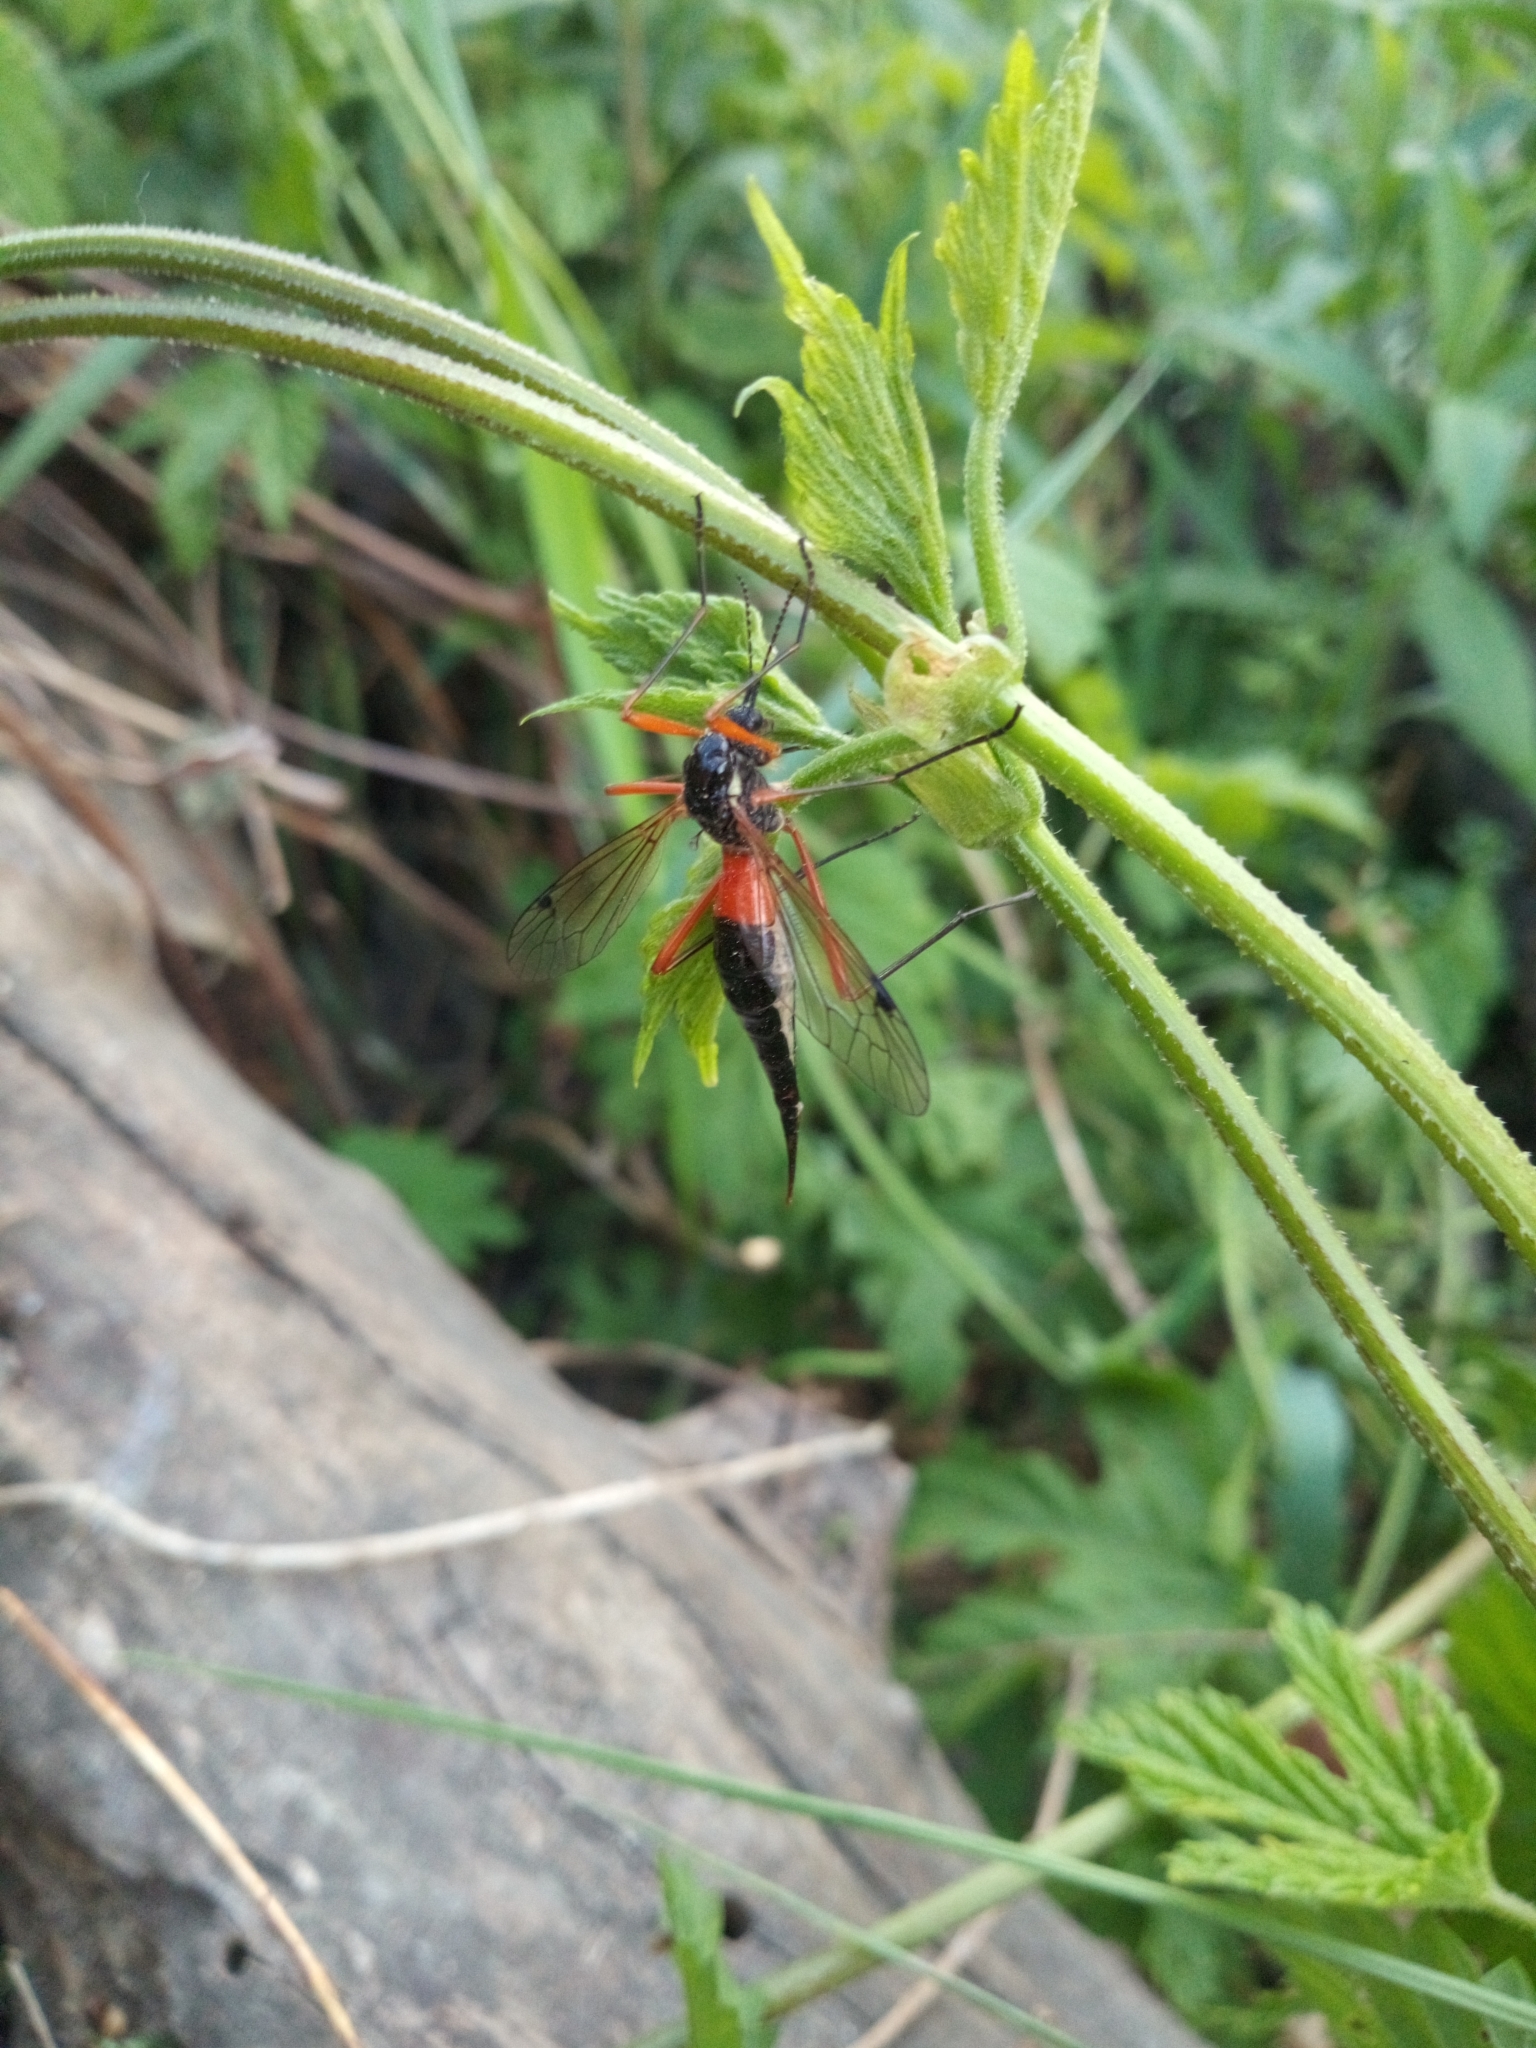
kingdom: Animalia
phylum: Arthropoda
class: Insecta
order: Diptera
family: Tipulidae
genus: Tanyptera
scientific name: Tanyptera atrata
